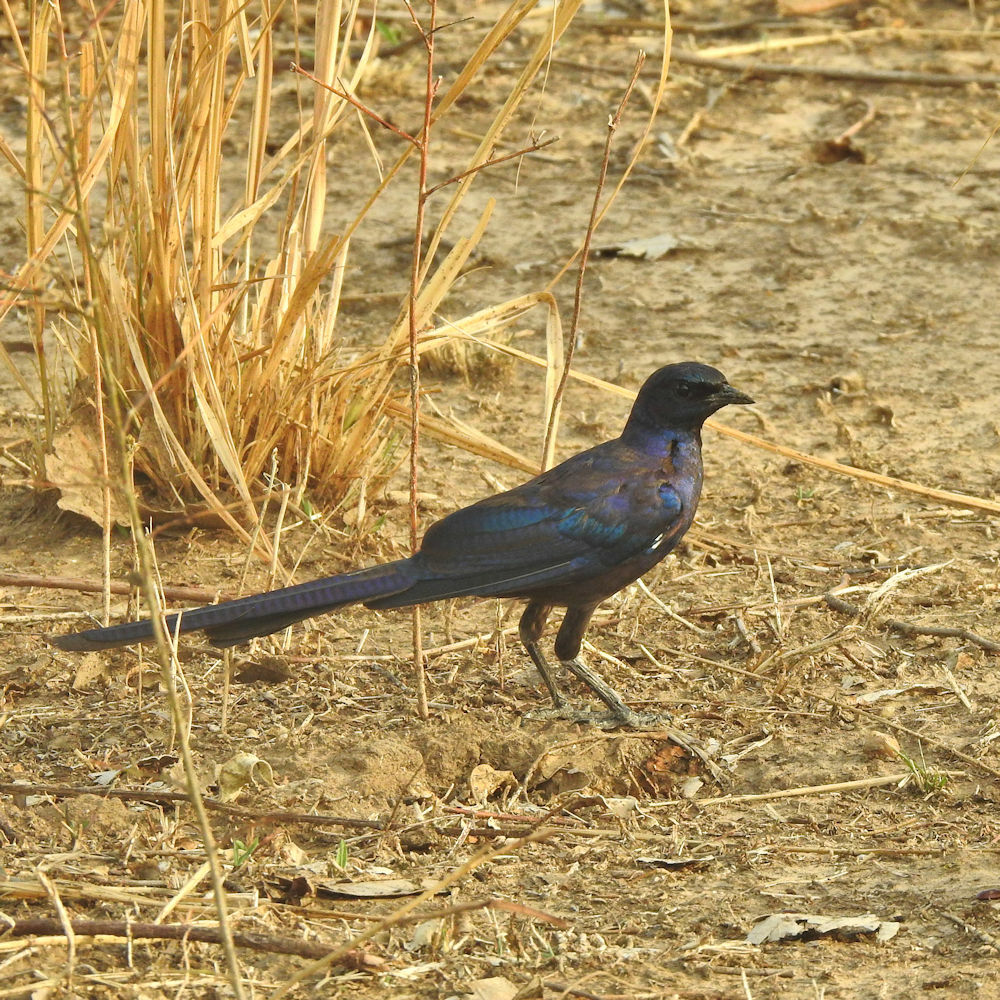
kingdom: Animalia
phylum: Chordata
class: Aves
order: Passeriformes
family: Sturnidae
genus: Lamprotornis
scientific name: Lamprotornis mevesii
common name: Meves's starling
